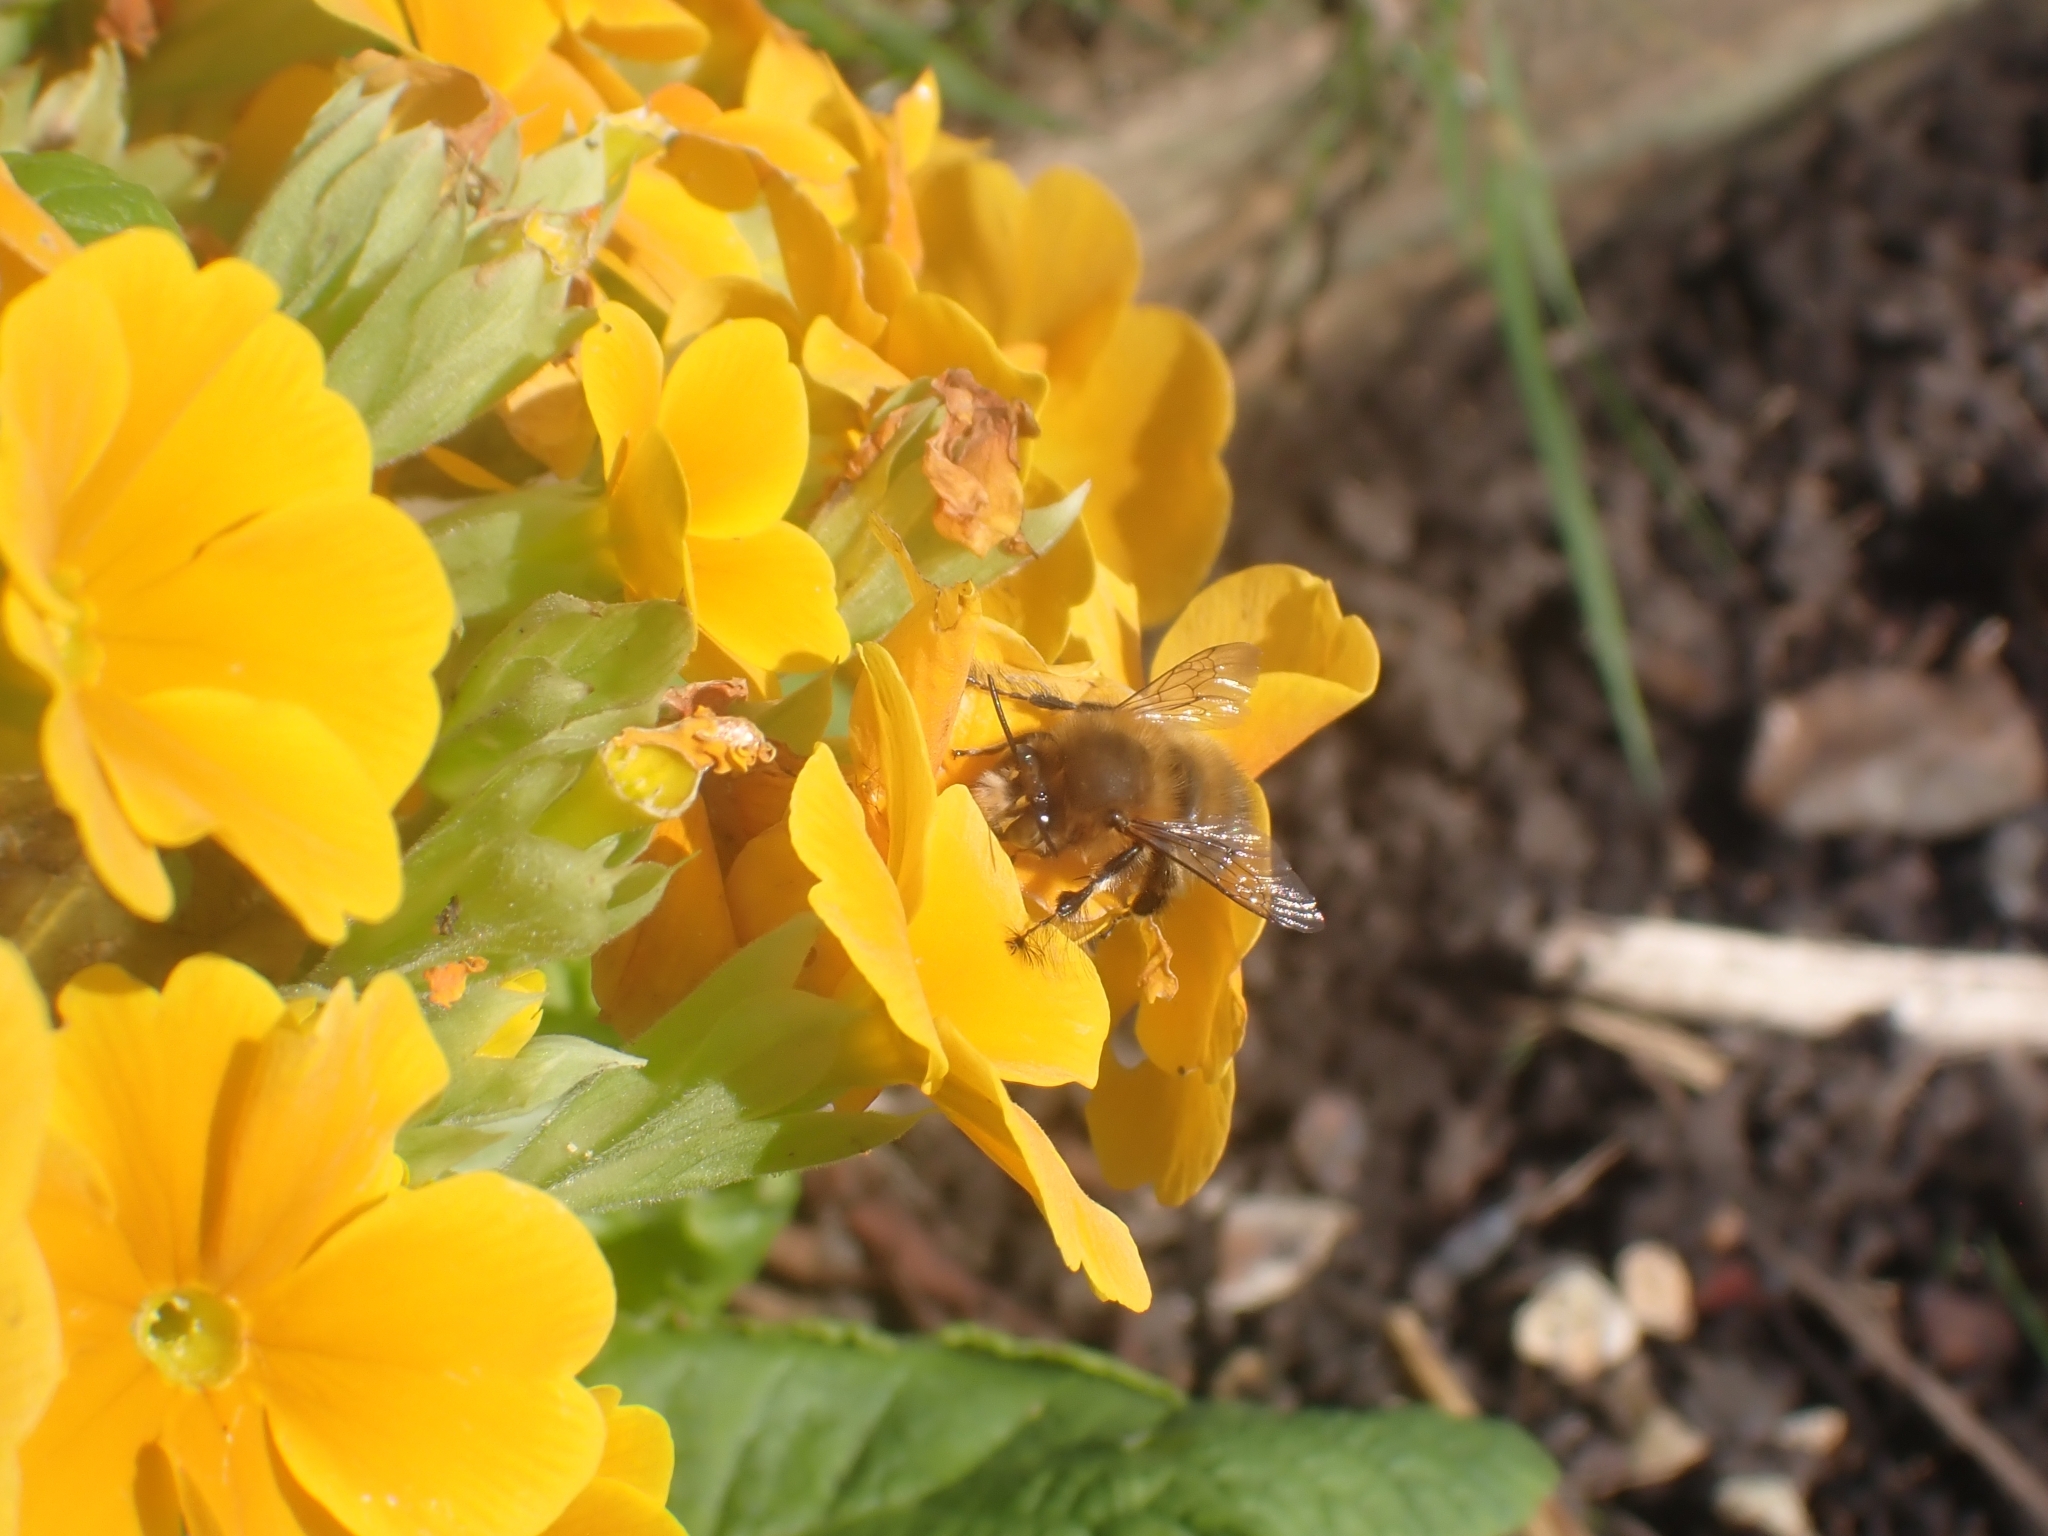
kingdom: Animalia
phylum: Arthropoda
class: Insecta
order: Hymenoptera
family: Apidae
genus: Anthophora
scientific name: Anthophora plumipes
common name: Hairy-footed flower bee
